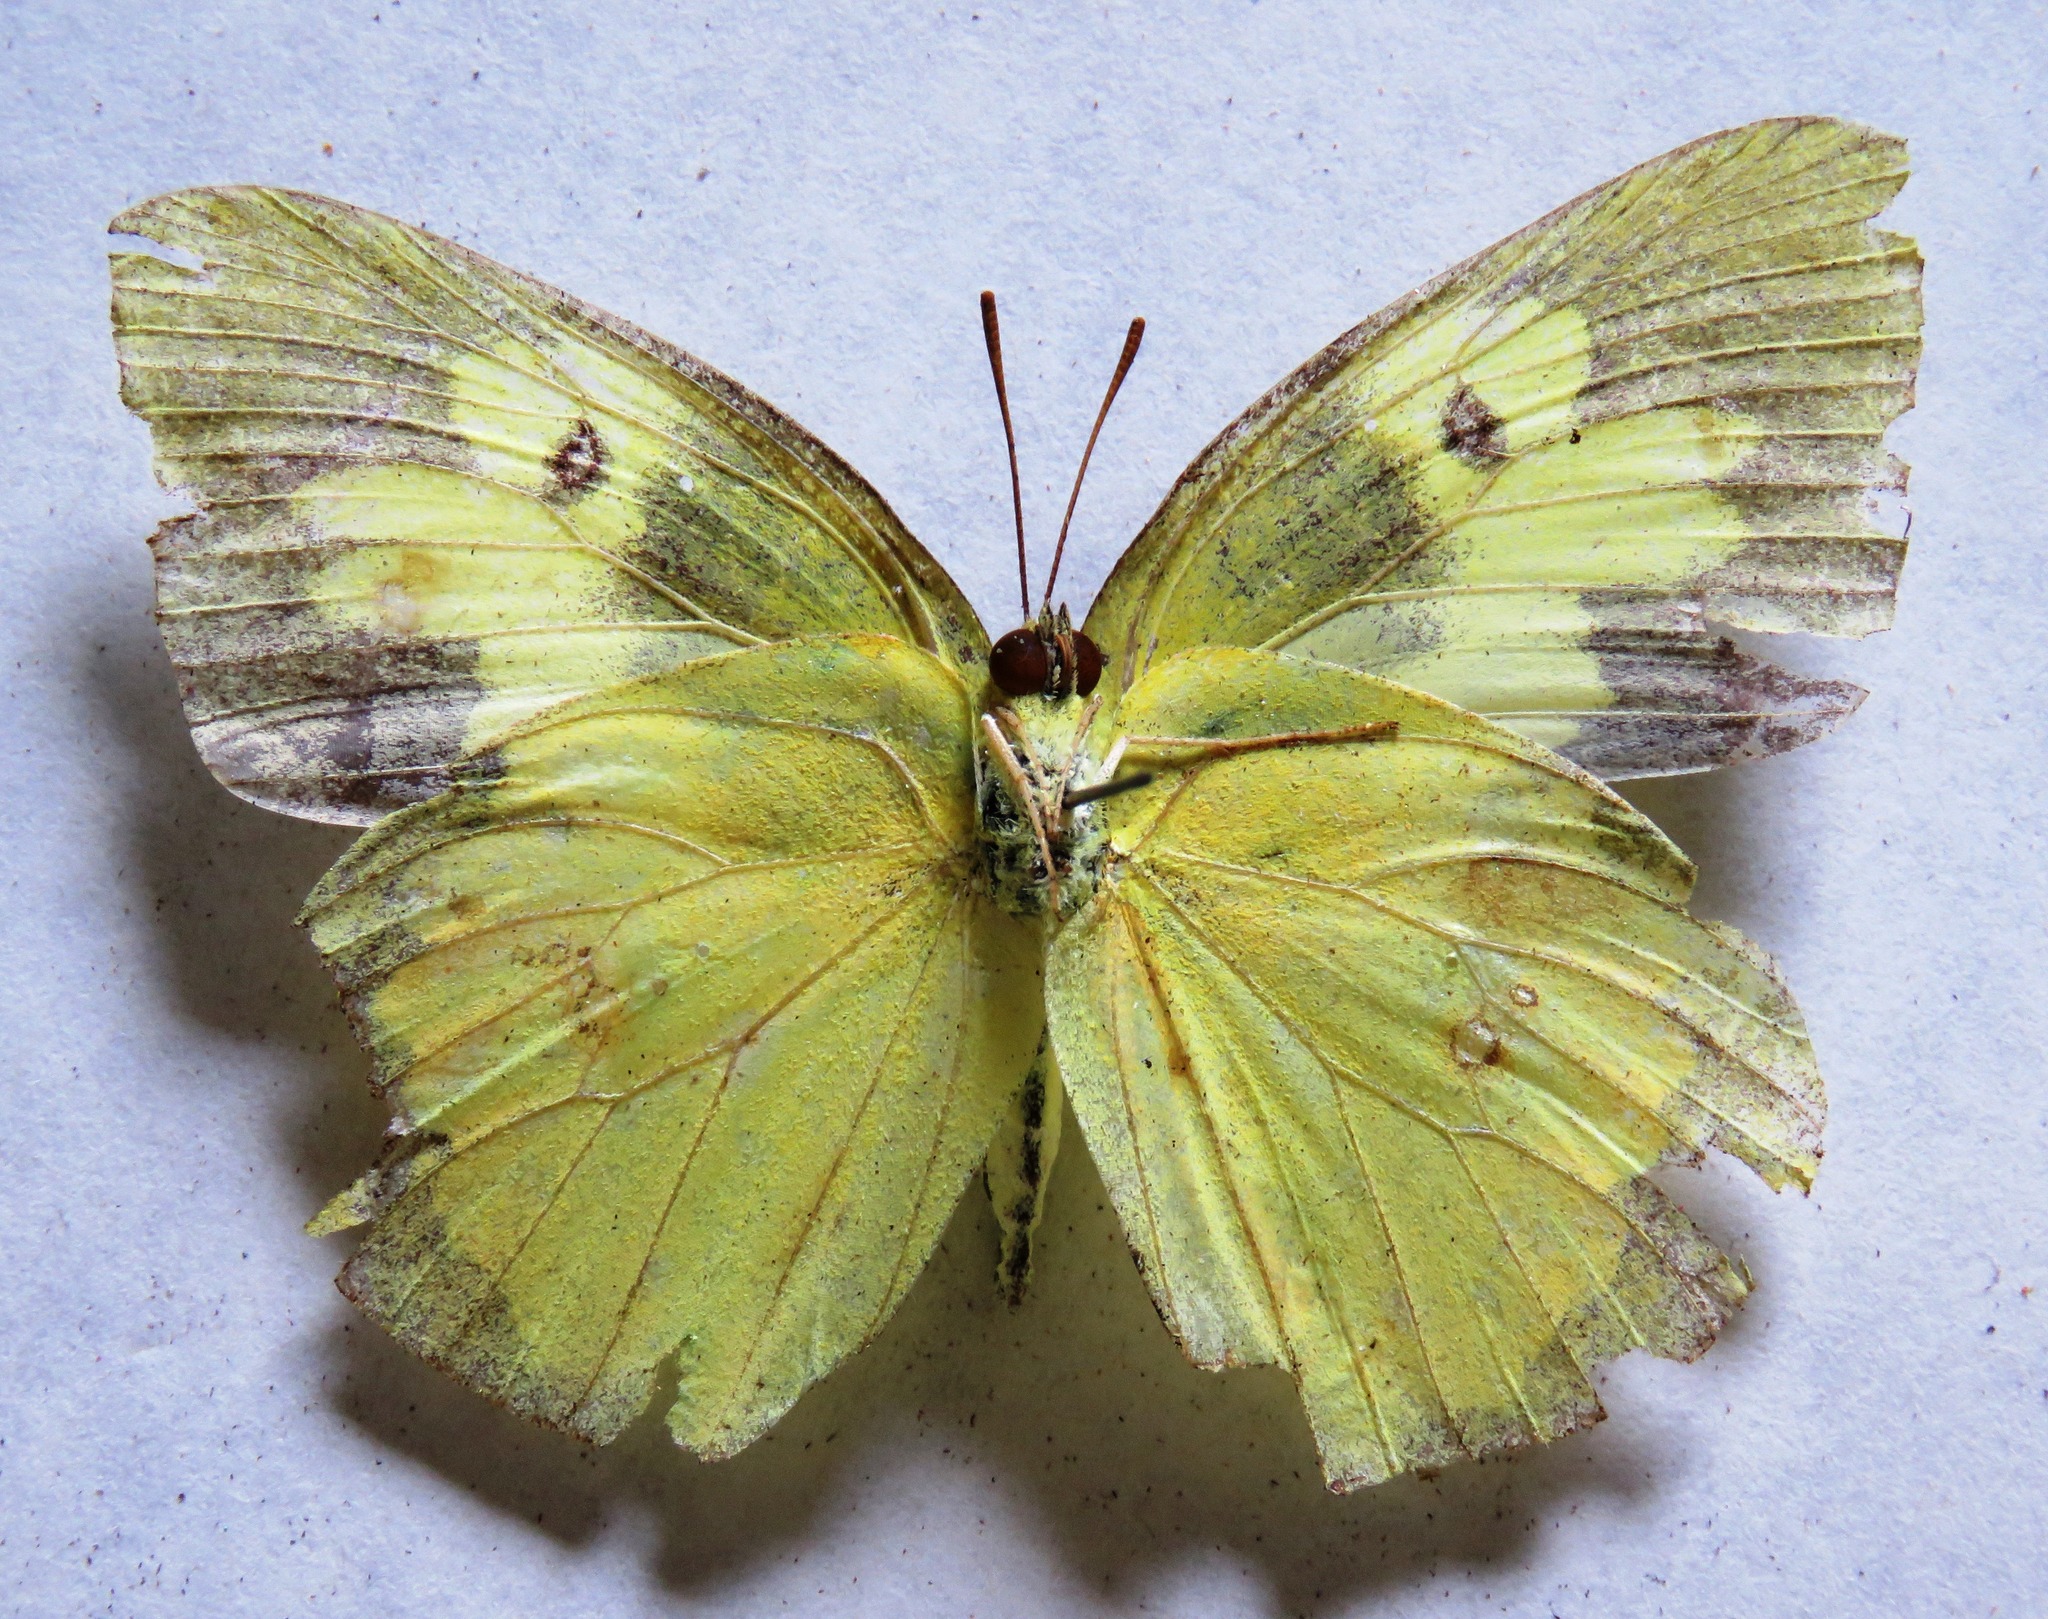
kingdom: Animalia
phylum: Arthropoda
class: Insecta
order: Lepidoptera
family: Pieridae
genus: Zerene
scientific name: Zerene cesonia
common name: Southern dogface
